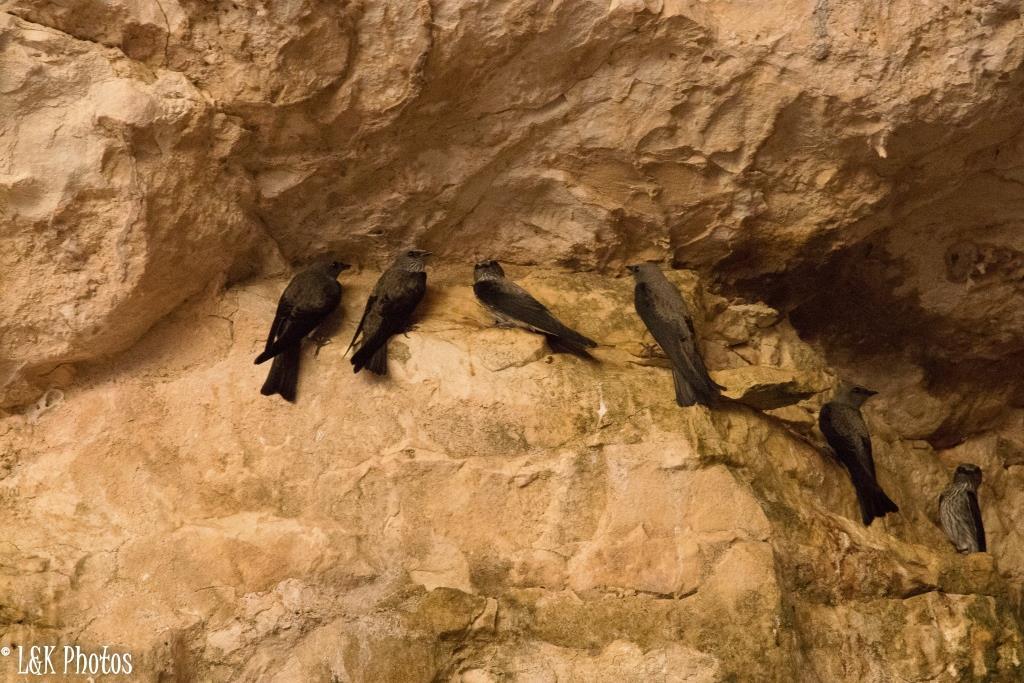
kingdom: Animalia
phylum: Chordata
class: Aves
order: Passeriformes
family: Hirundinidae
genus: Phedina
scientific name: Phedina borbonica
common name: Mascarene martin
